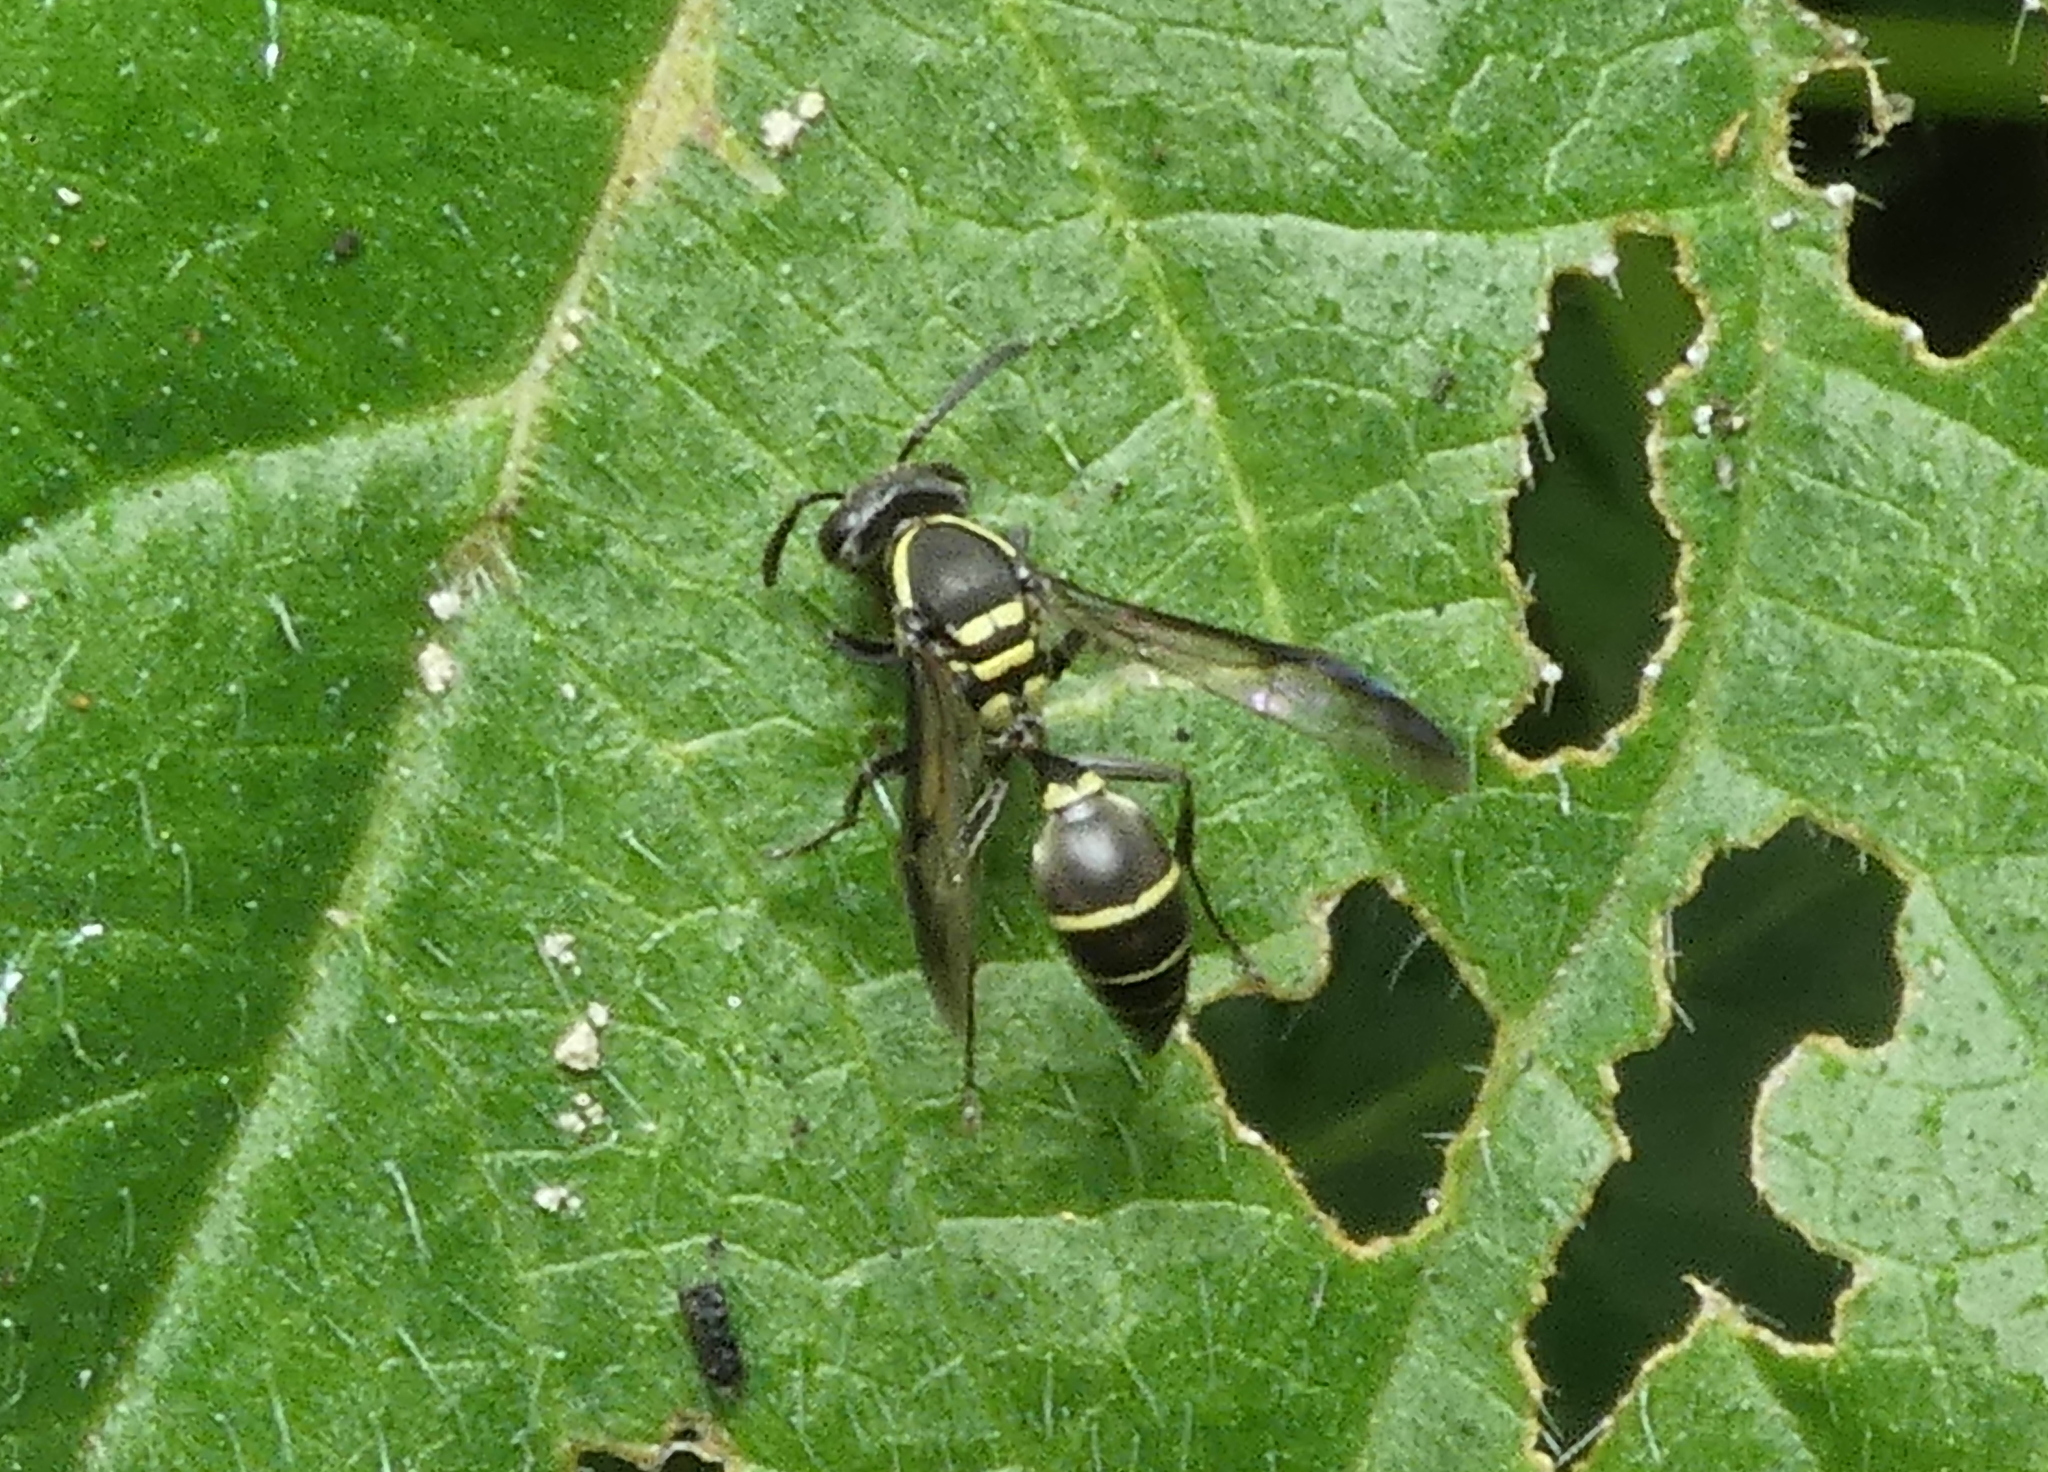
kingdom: Animalia
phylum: Arthropoda
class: Insecta
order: Hymenoptera
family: Eumenidae
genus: Polybia
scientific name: Polybia occidentalis
